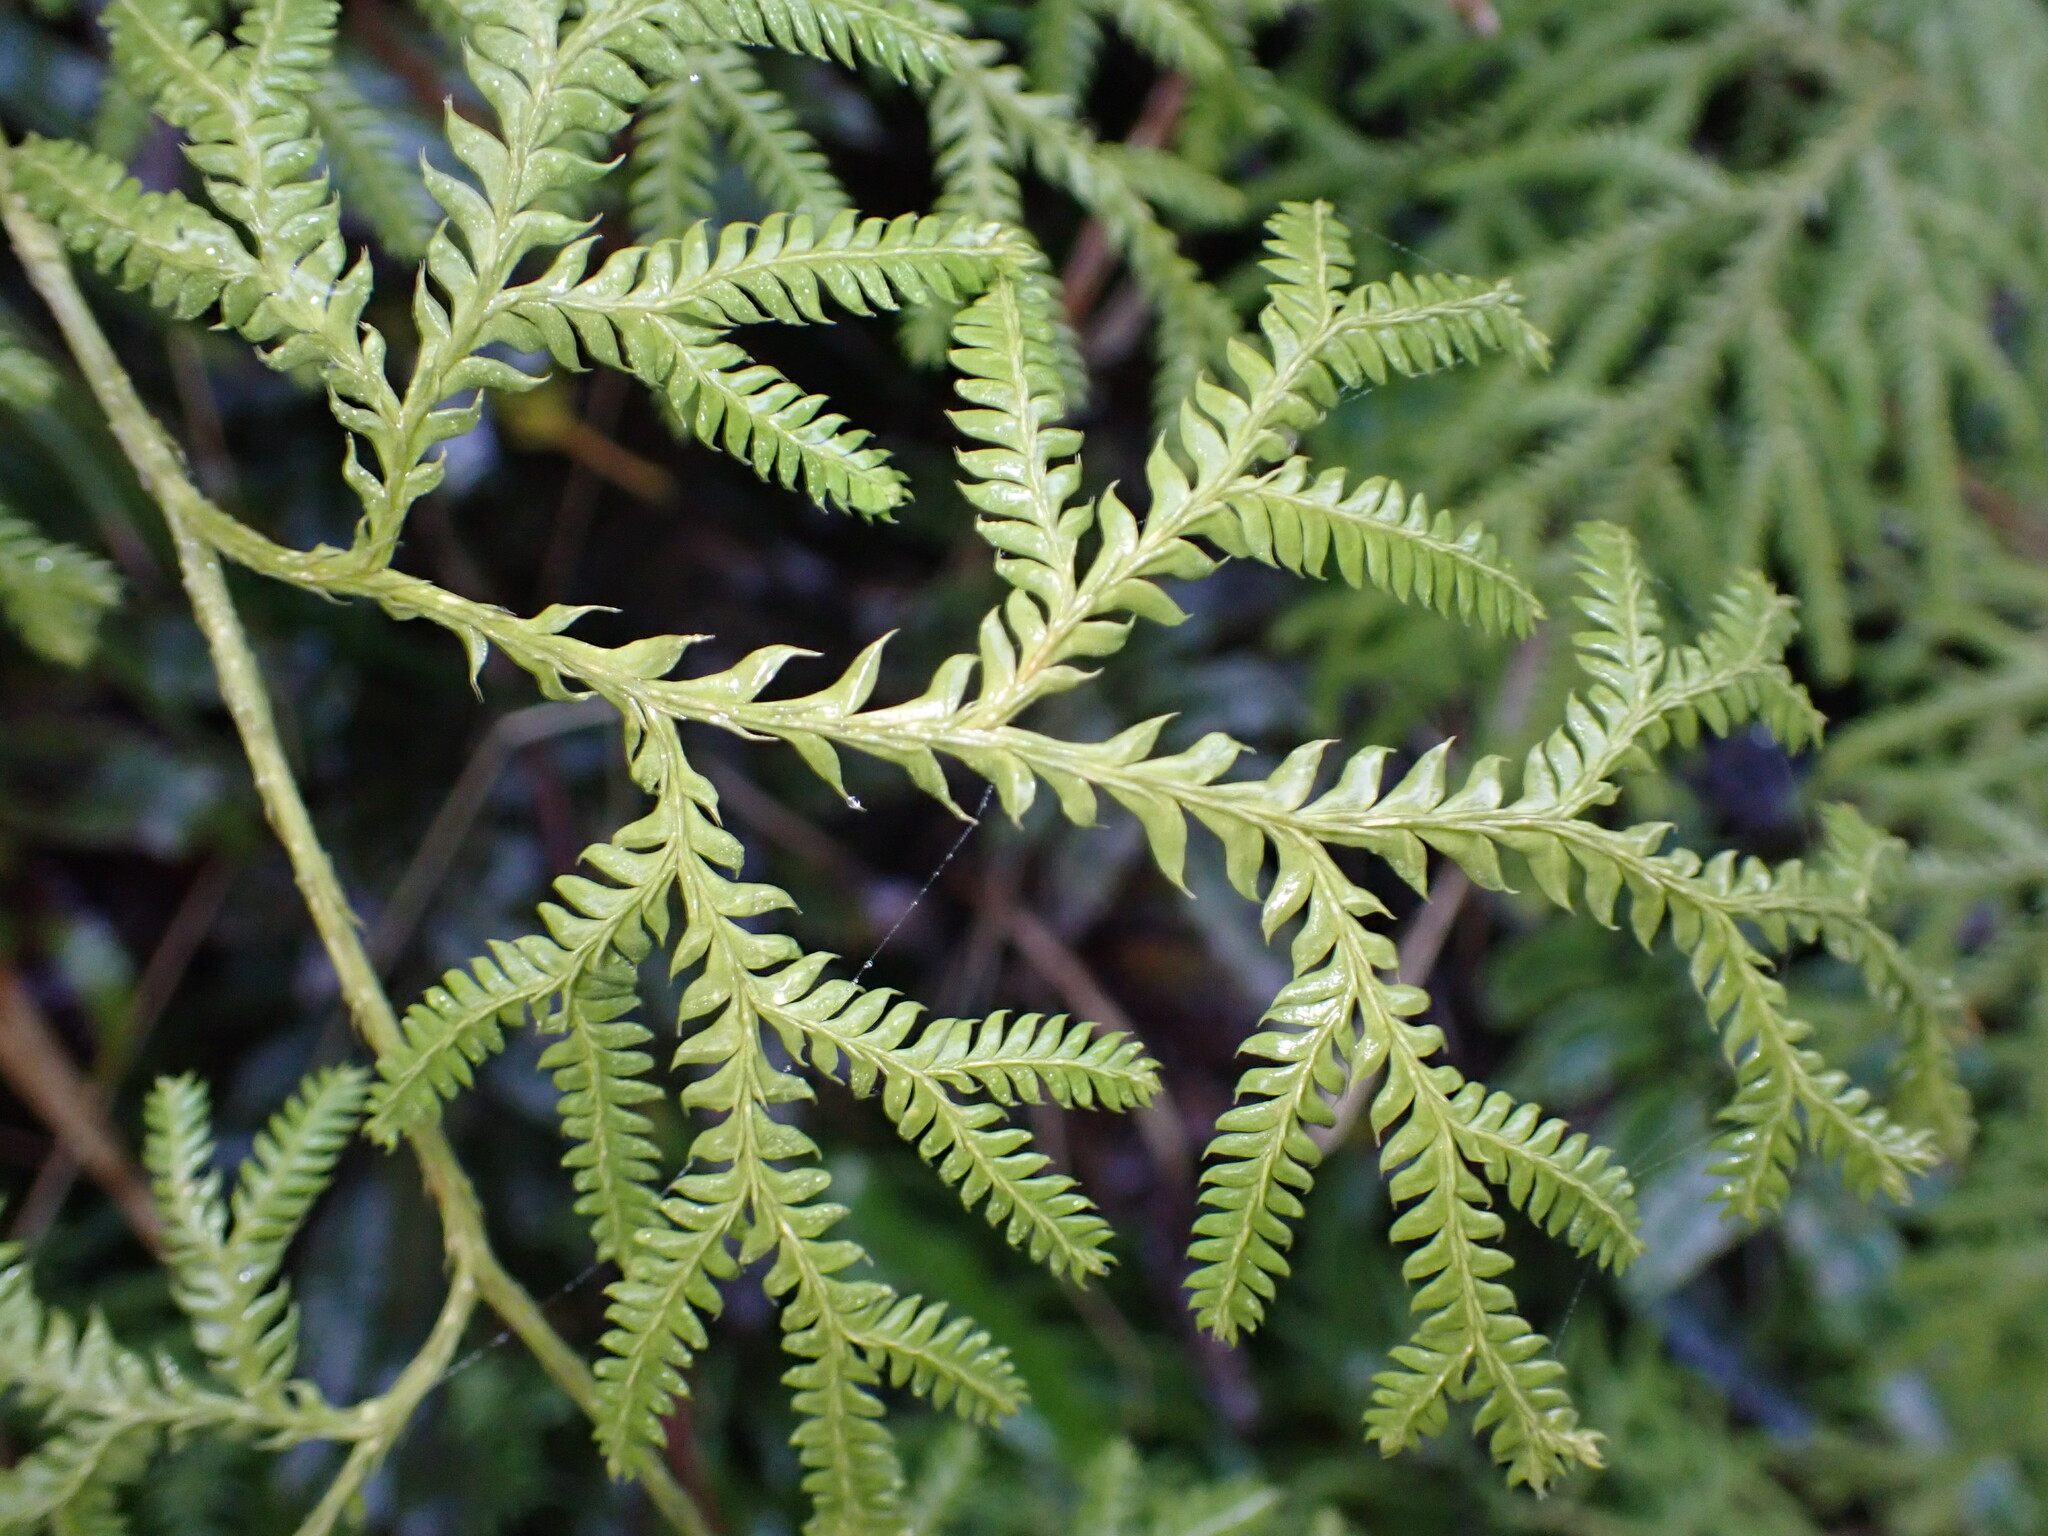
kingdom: Plantae
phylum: Tracheophyta
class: Lycopodiopsida
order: Lycopodiales
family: Lycopodiaceae
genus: Lycopodium
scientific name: Lycopodium volubile
